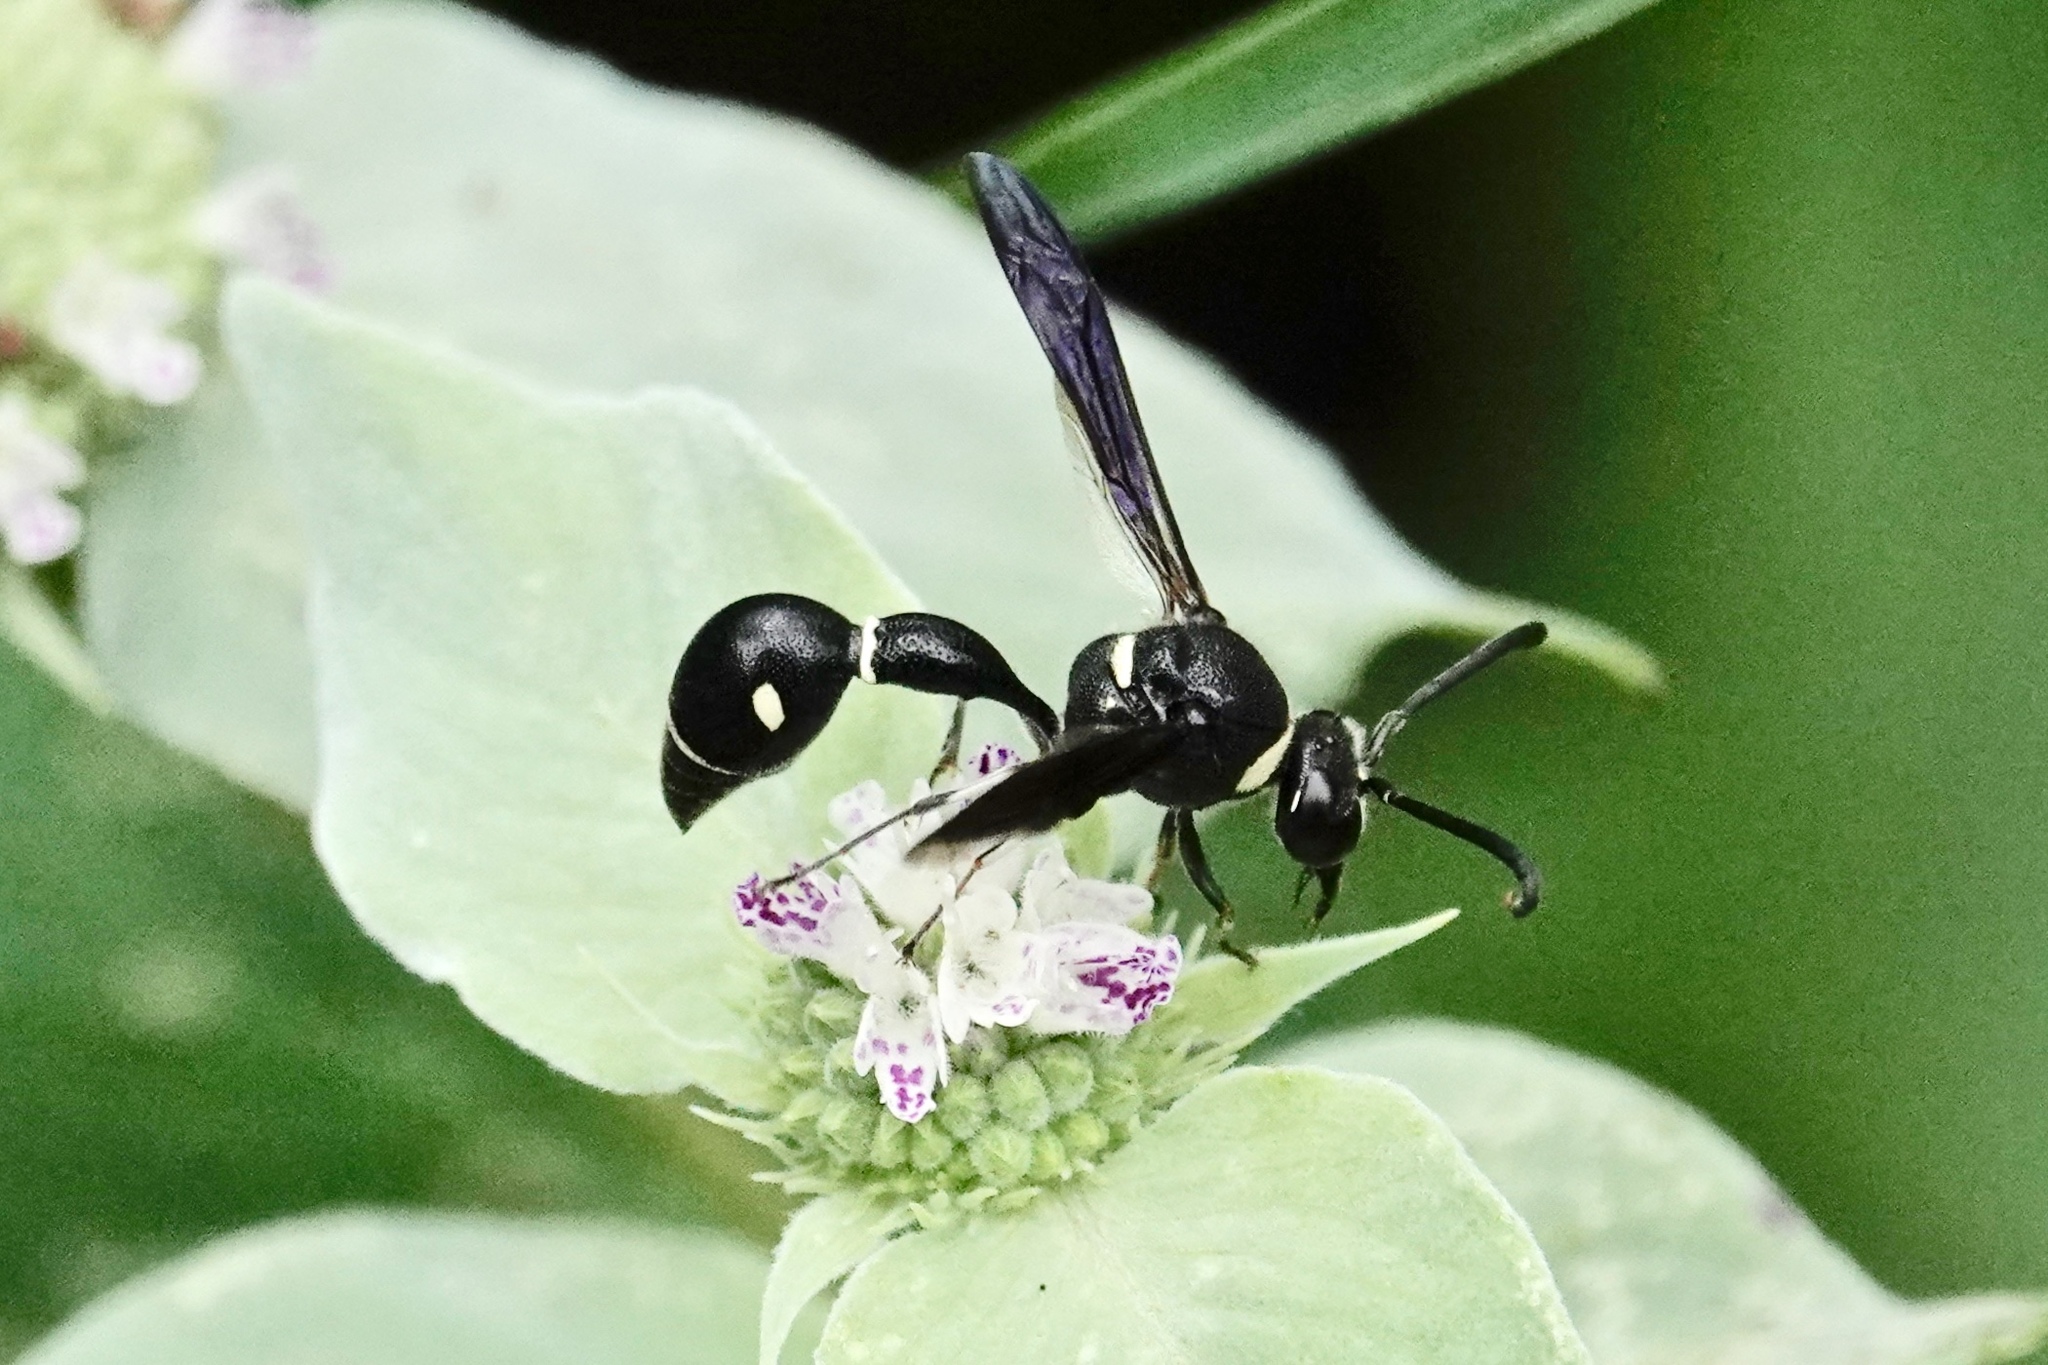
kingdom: Animalia
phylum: Arthropoda
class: Insecta
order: Hymenoptera
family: Vespidae
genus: Eumenes
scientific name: Eumenes fraternus
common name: Fraternal potter wasp
